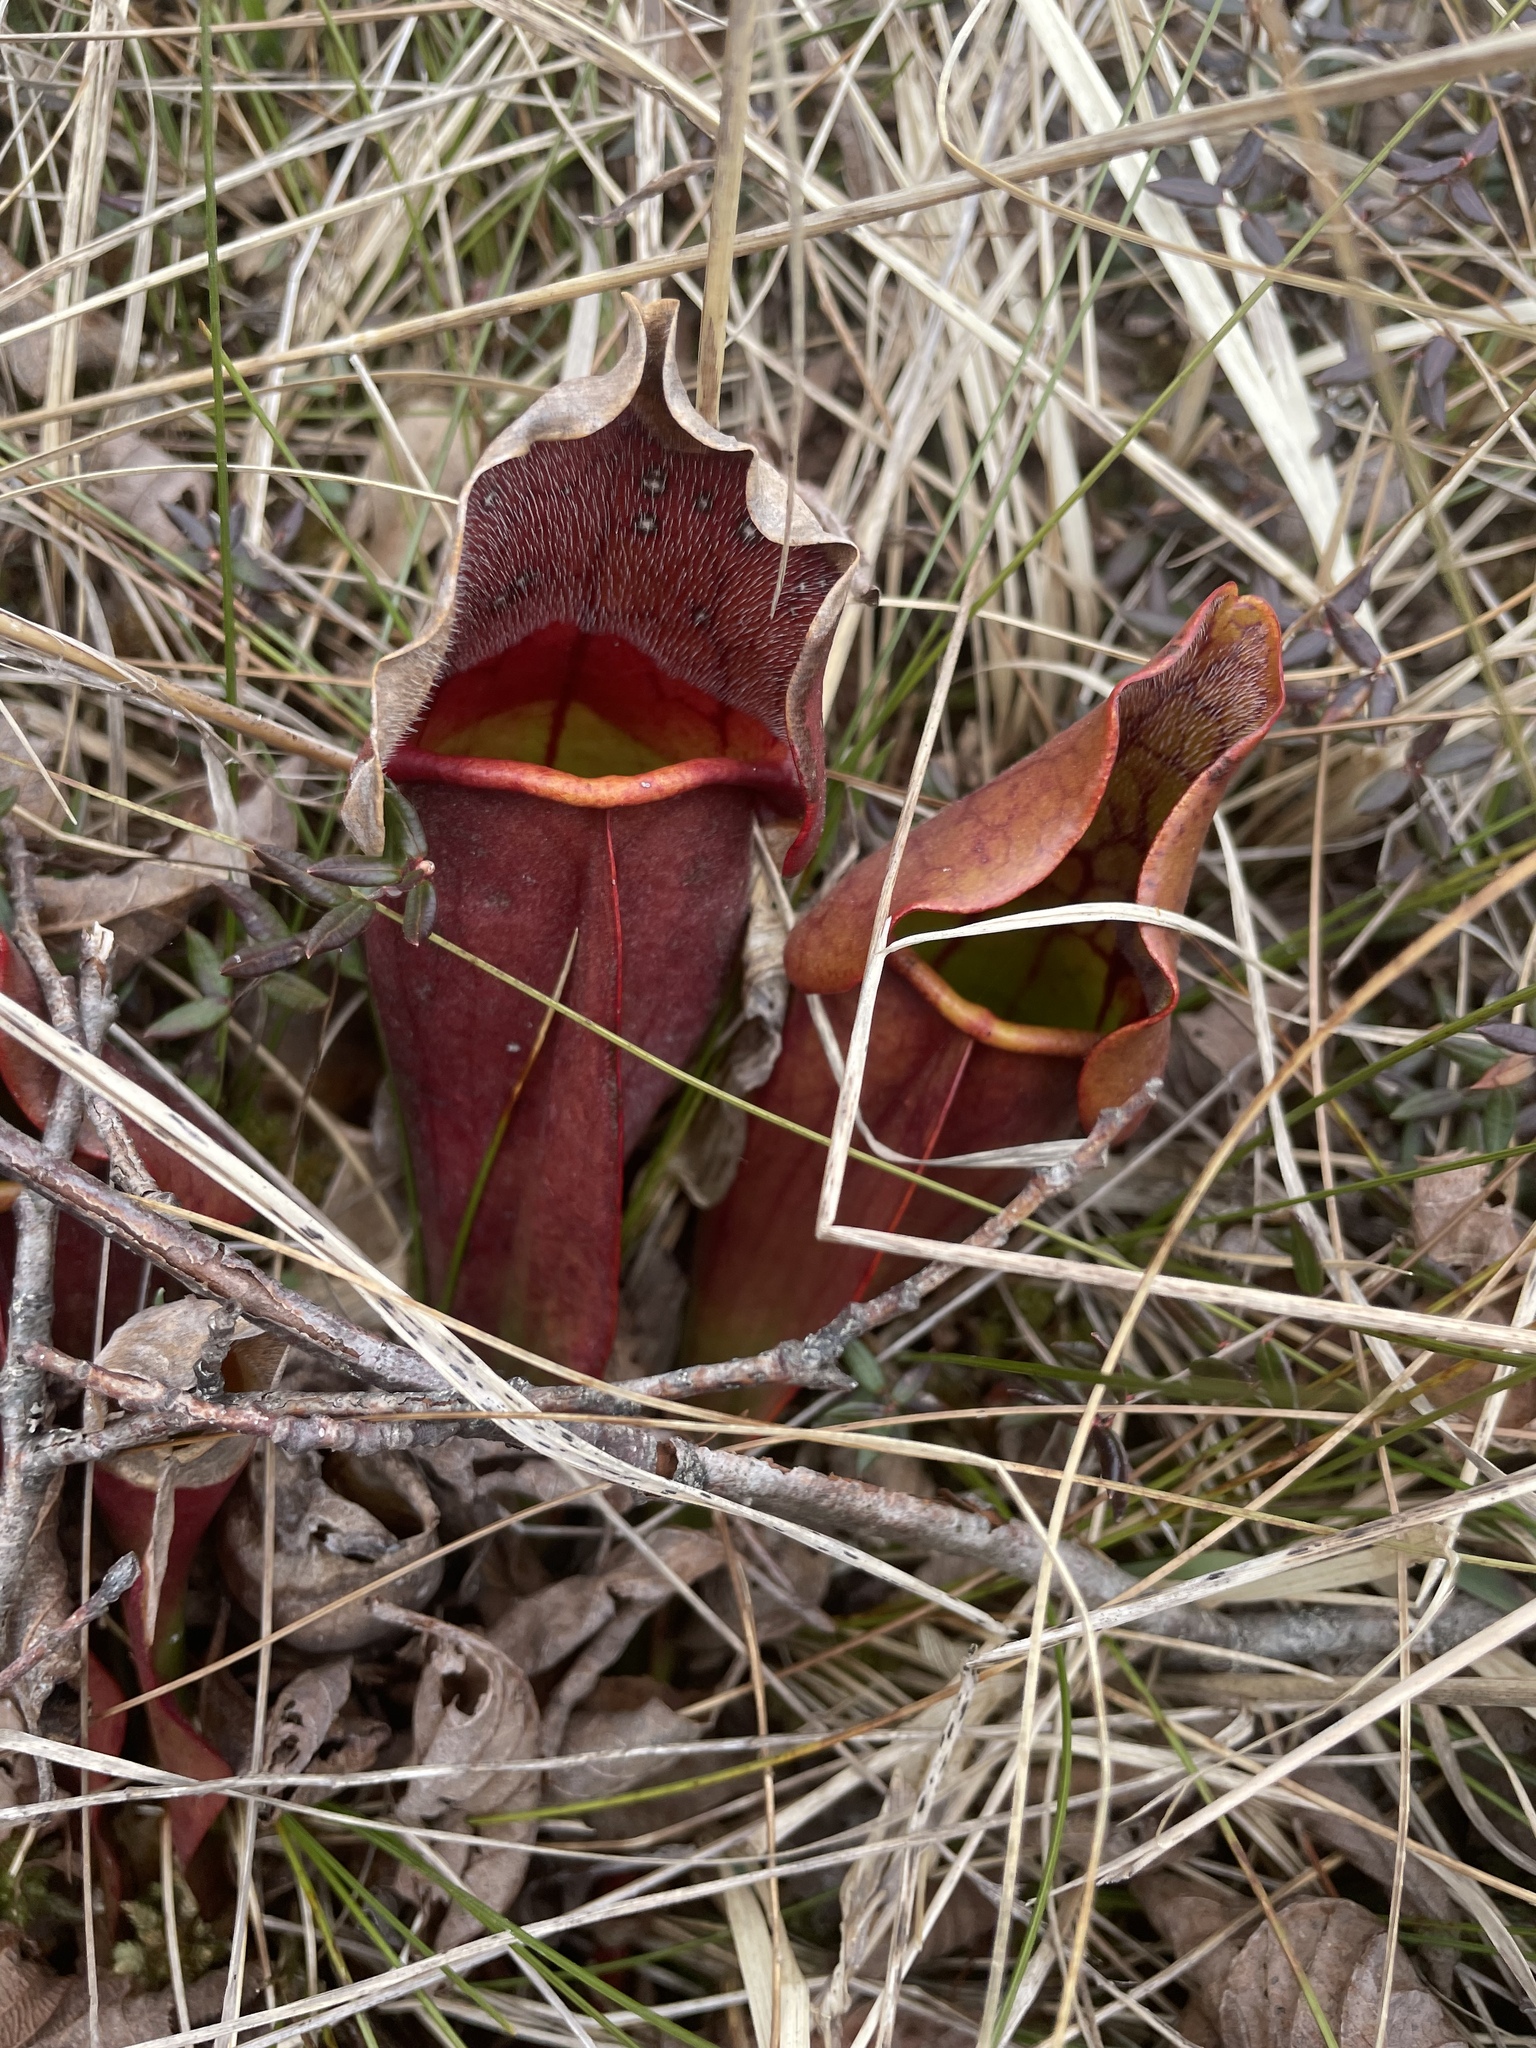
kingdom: Plantae
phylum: Tracheophyta
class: Magnoliopsida
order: Ericales
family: Sarraceniaceae
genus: Sarracenia
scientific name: Sarracenia purpurea
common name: Pitcherplant
